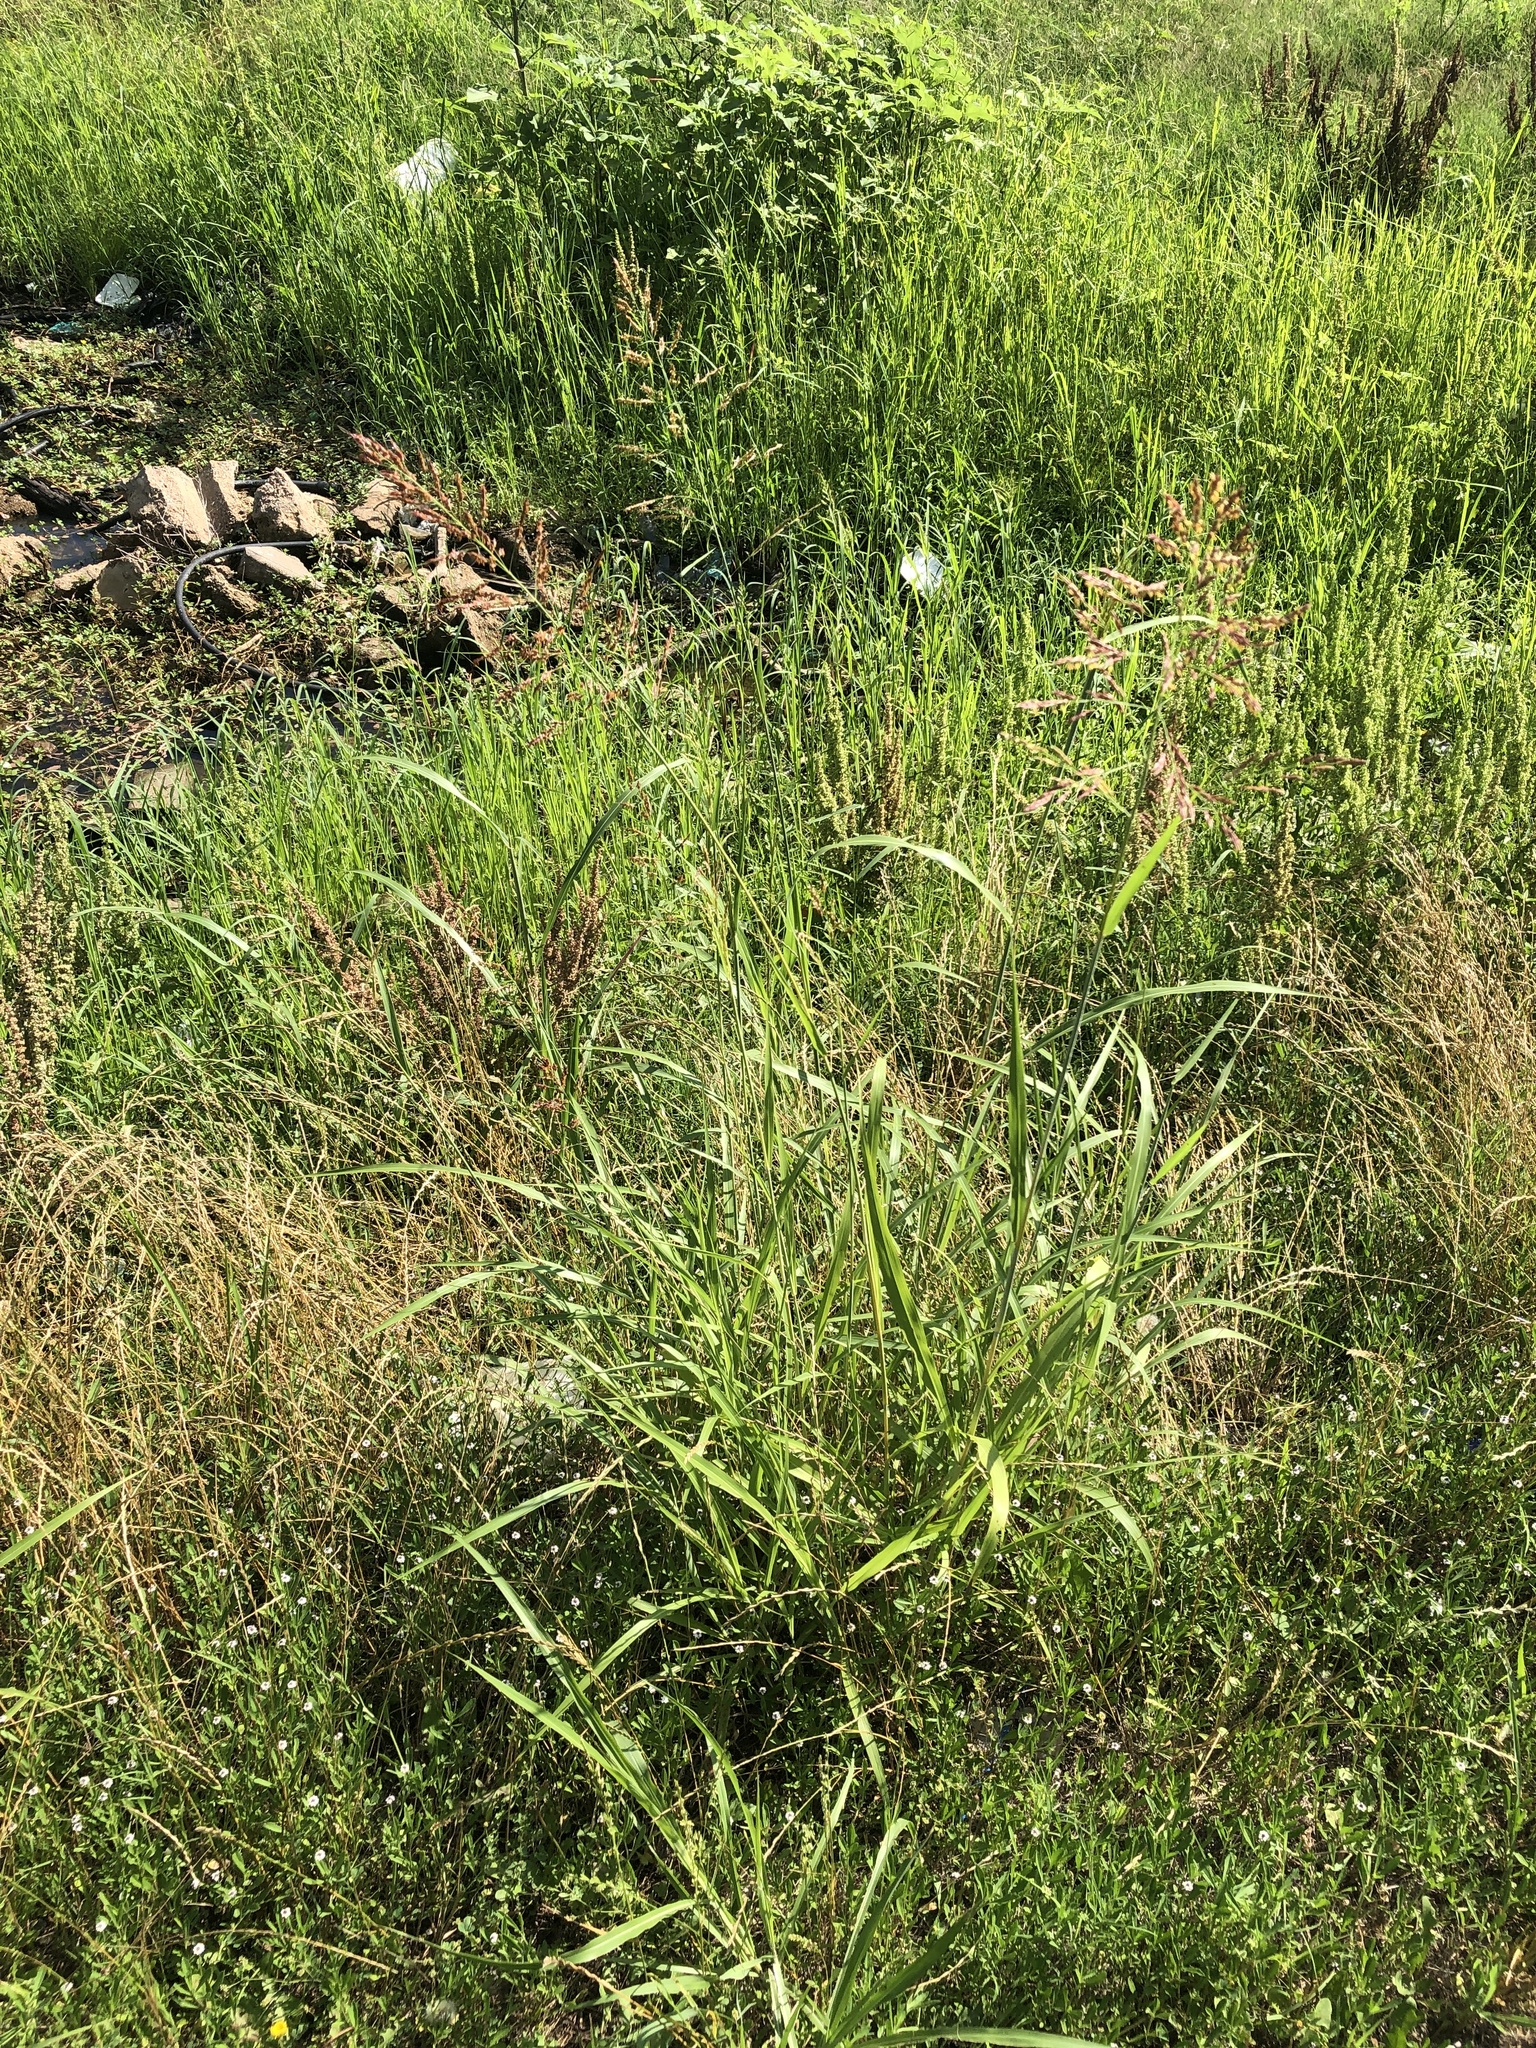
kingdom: Plantae
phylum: Tracheophyta
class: Liliopsida
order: Poales
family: Poaceae
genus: Sorghum
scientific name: Sorghum halepense
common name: Johnson-grass
